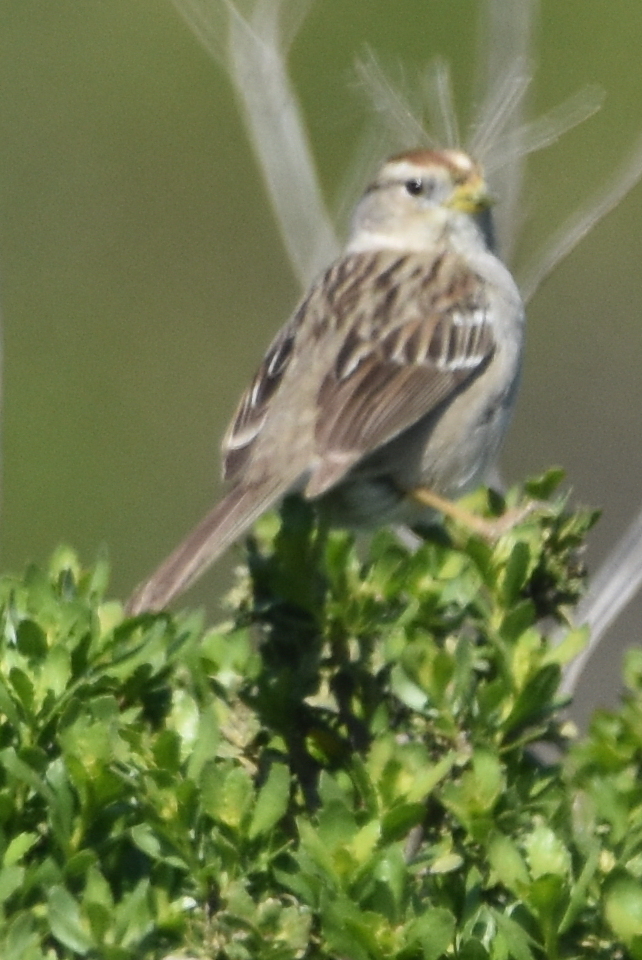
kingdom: Animalia
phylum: Chordata
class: Aves
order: Passeriformes
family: Passerellidae
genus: Zonotrichia
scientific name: Zonotrichia leucophrys
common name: White-crowned sparrow
